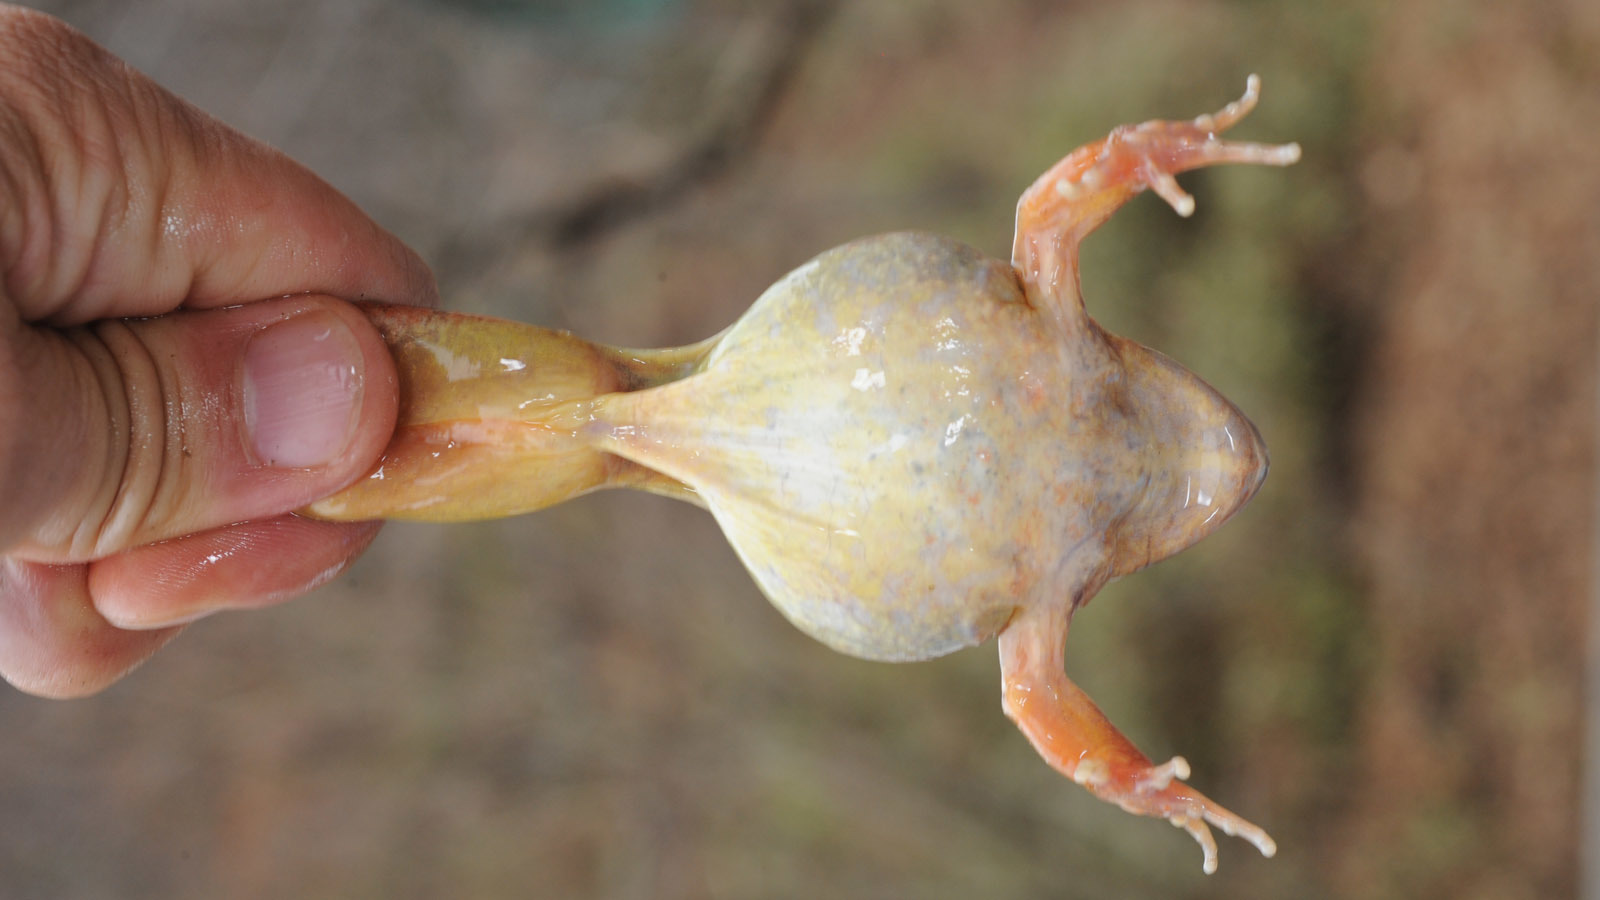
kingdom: Animalia
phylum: Chordata
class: Amphibia
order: Anura
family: Ranidae
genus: Rana
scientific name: Rana uenoi
